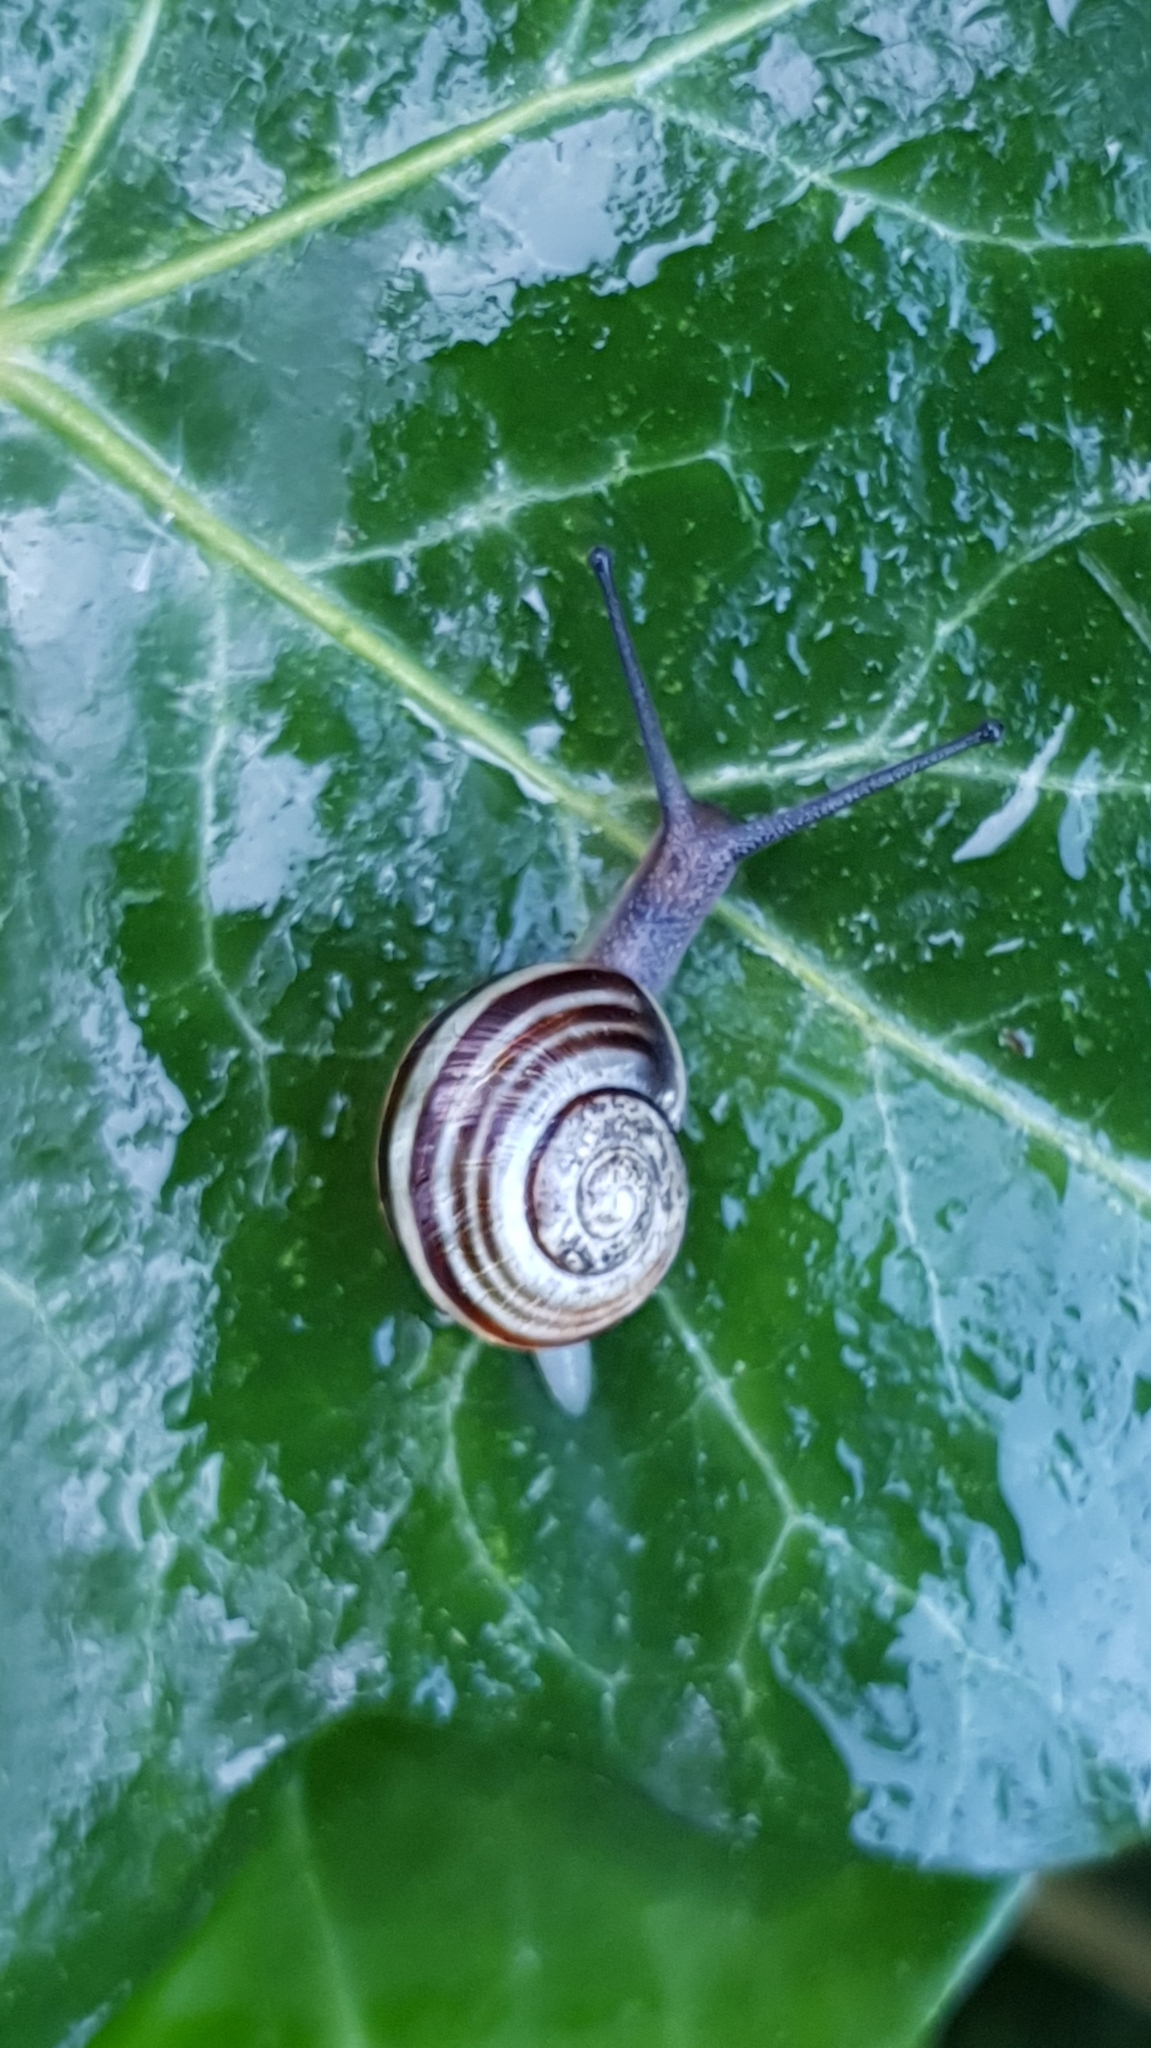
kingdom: Animalia
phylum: Mollusca
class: Gastropoda
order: Stylommatophora
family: Helicidae
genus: Cepaea
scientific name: Cepaea
